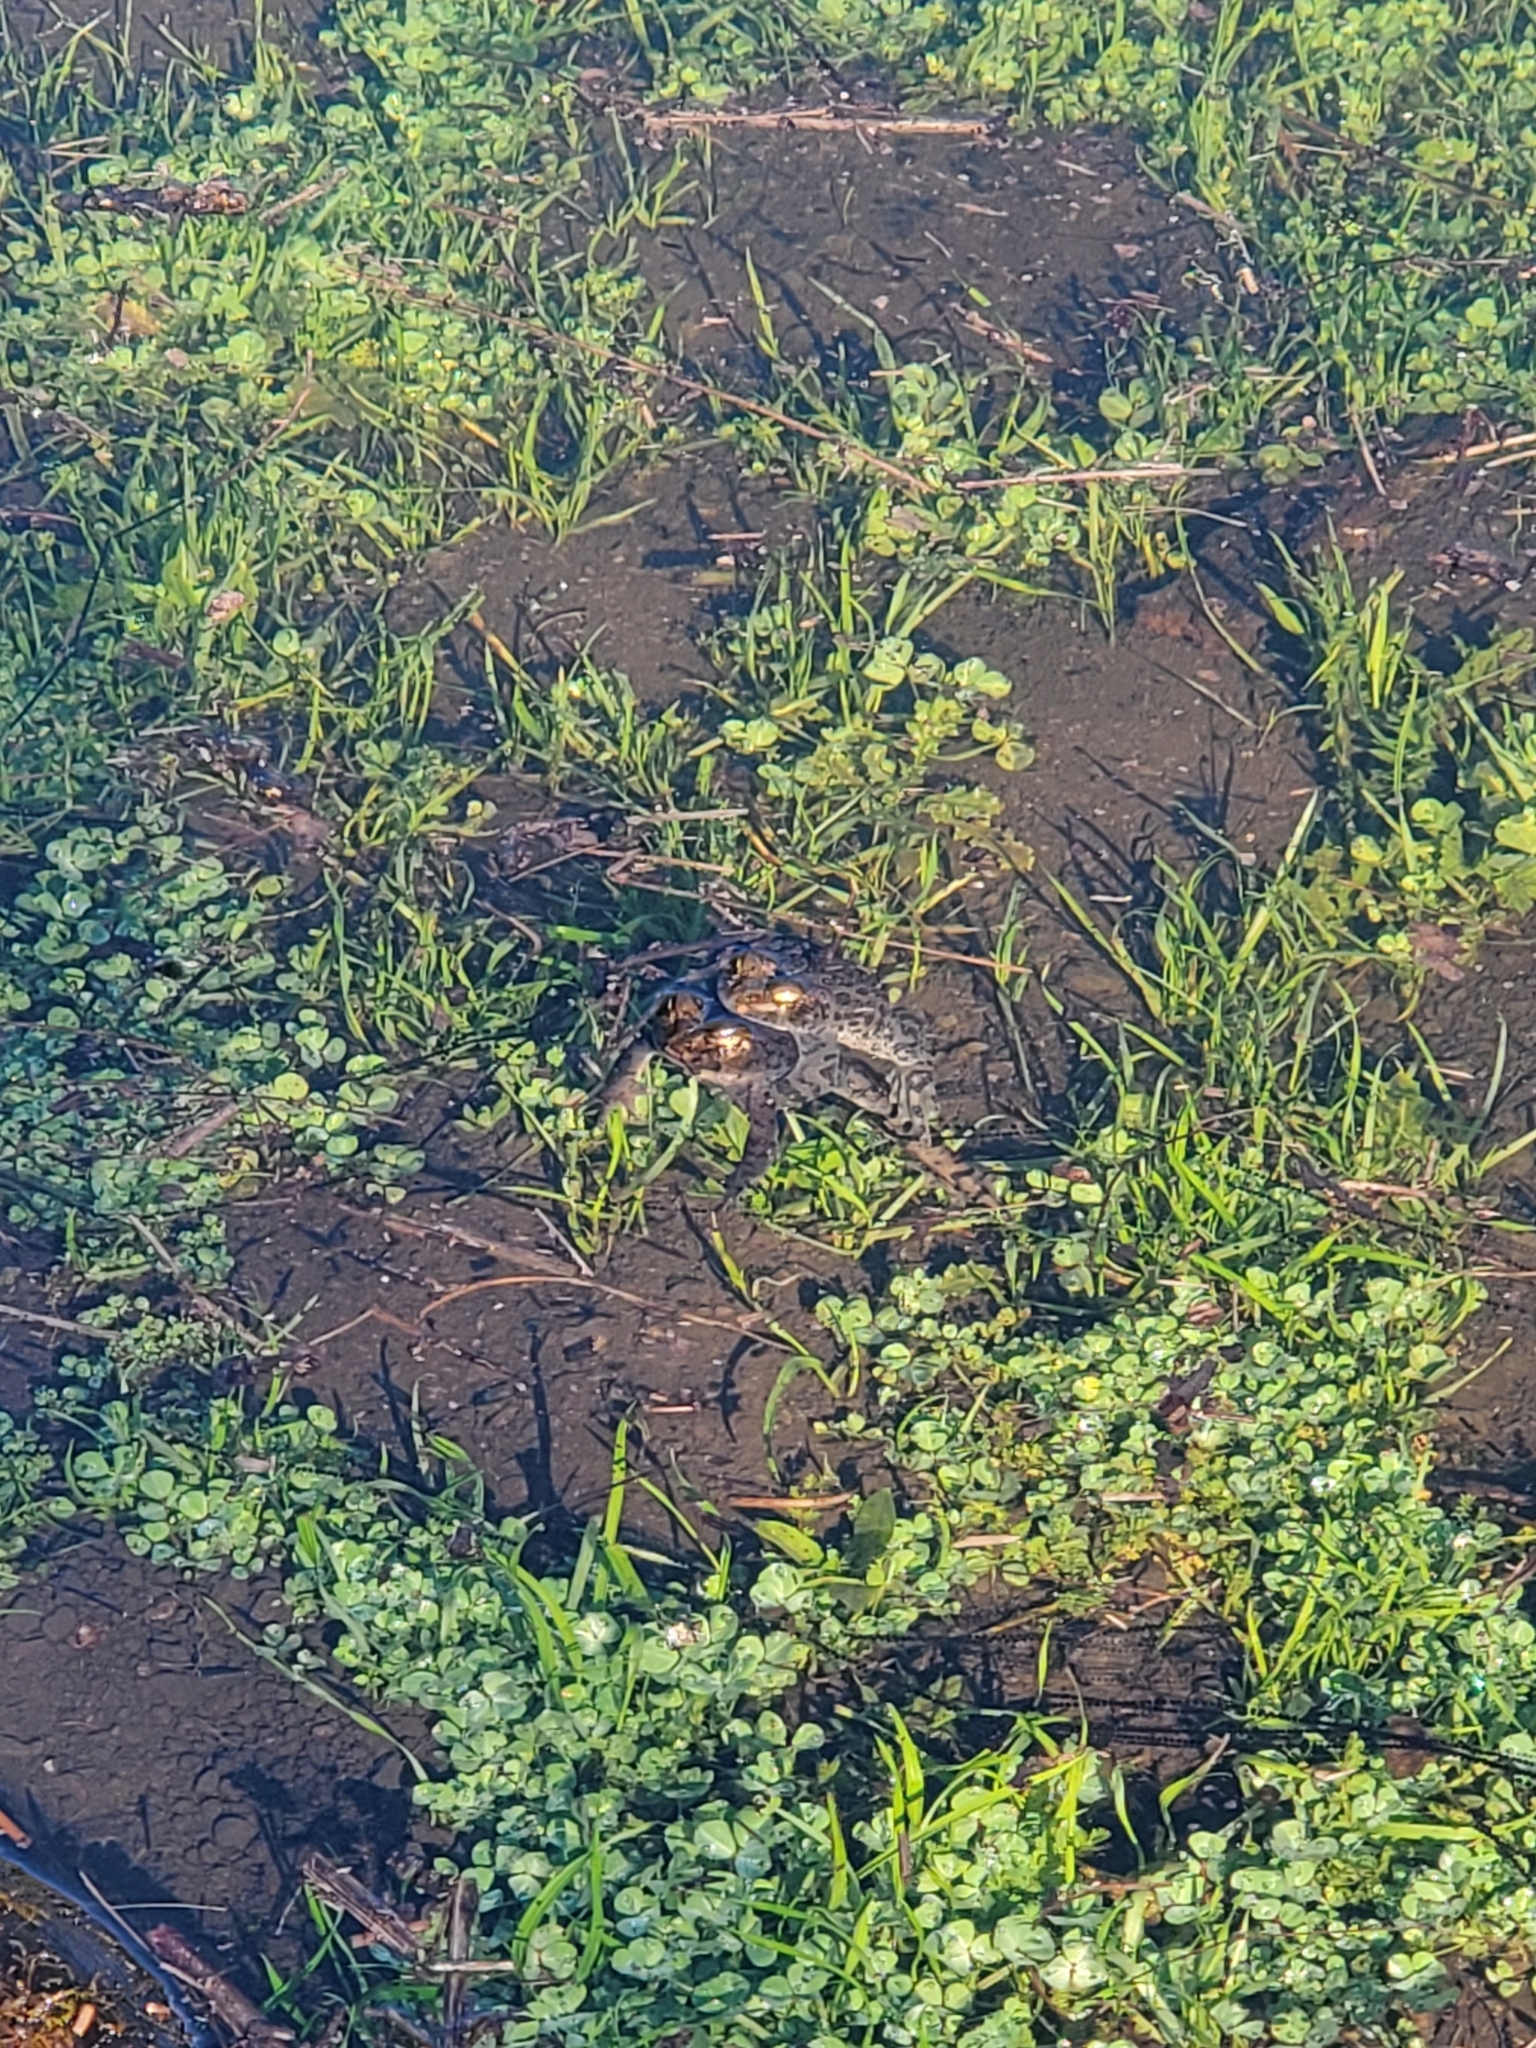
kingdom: Animalia
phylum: Chordata
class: Amphibia
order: Anura
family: Bufonidae
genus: Anaxyrus
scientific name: Anaxyrus boreas
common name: Western toad
